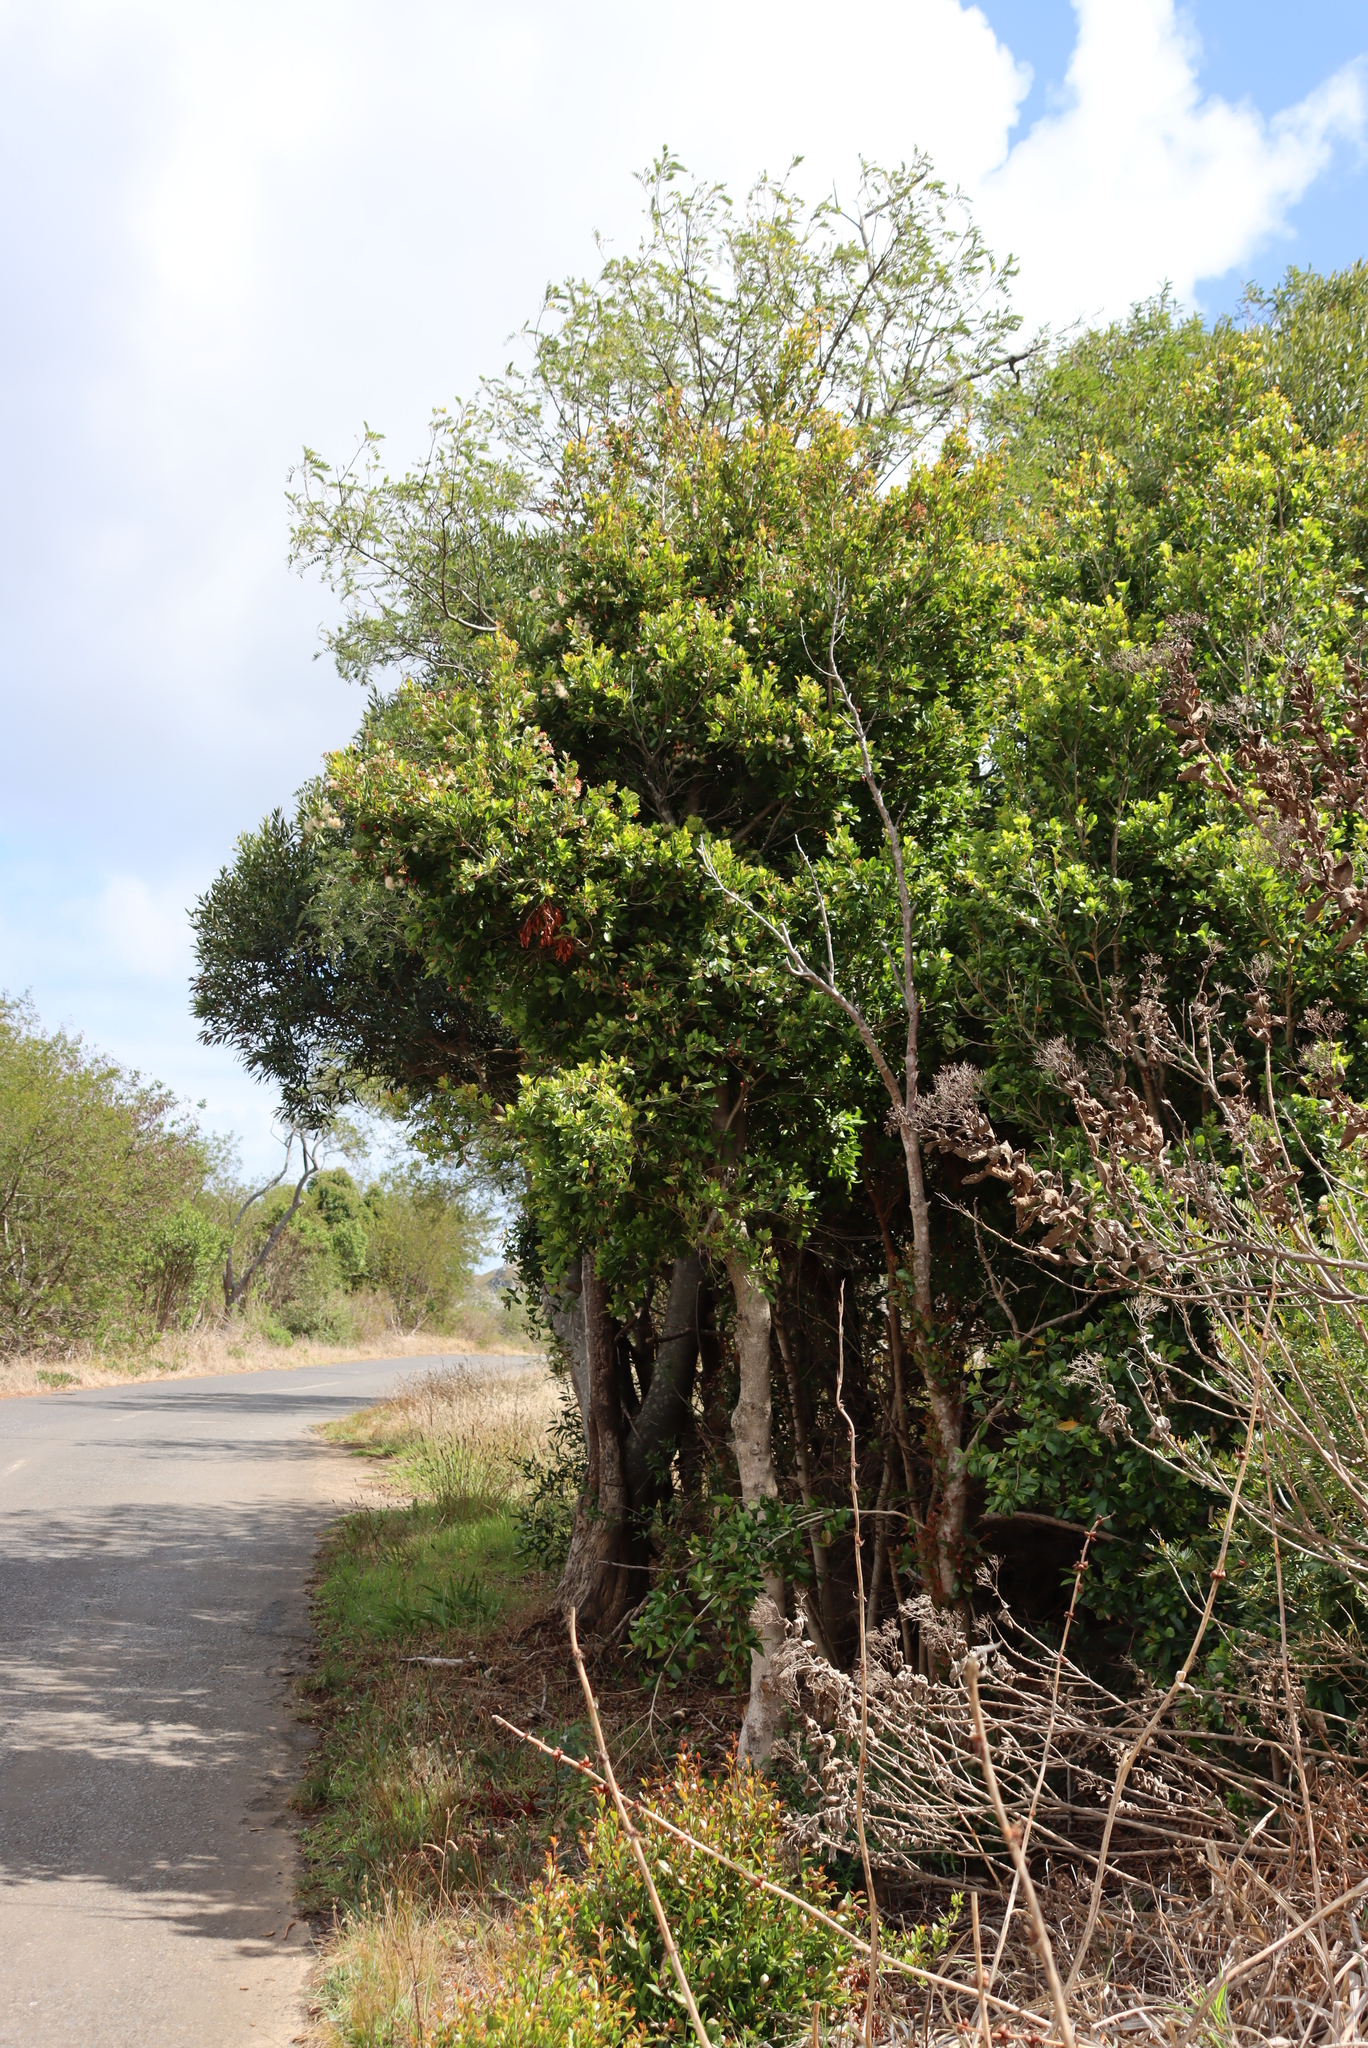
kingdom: Plantae
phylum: Tracheophyta
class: Magnoliopsida
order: Myrtales
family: Myrtaceae
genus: Syzygium
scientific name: Syzygium australe
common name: Australian brush-cherry
